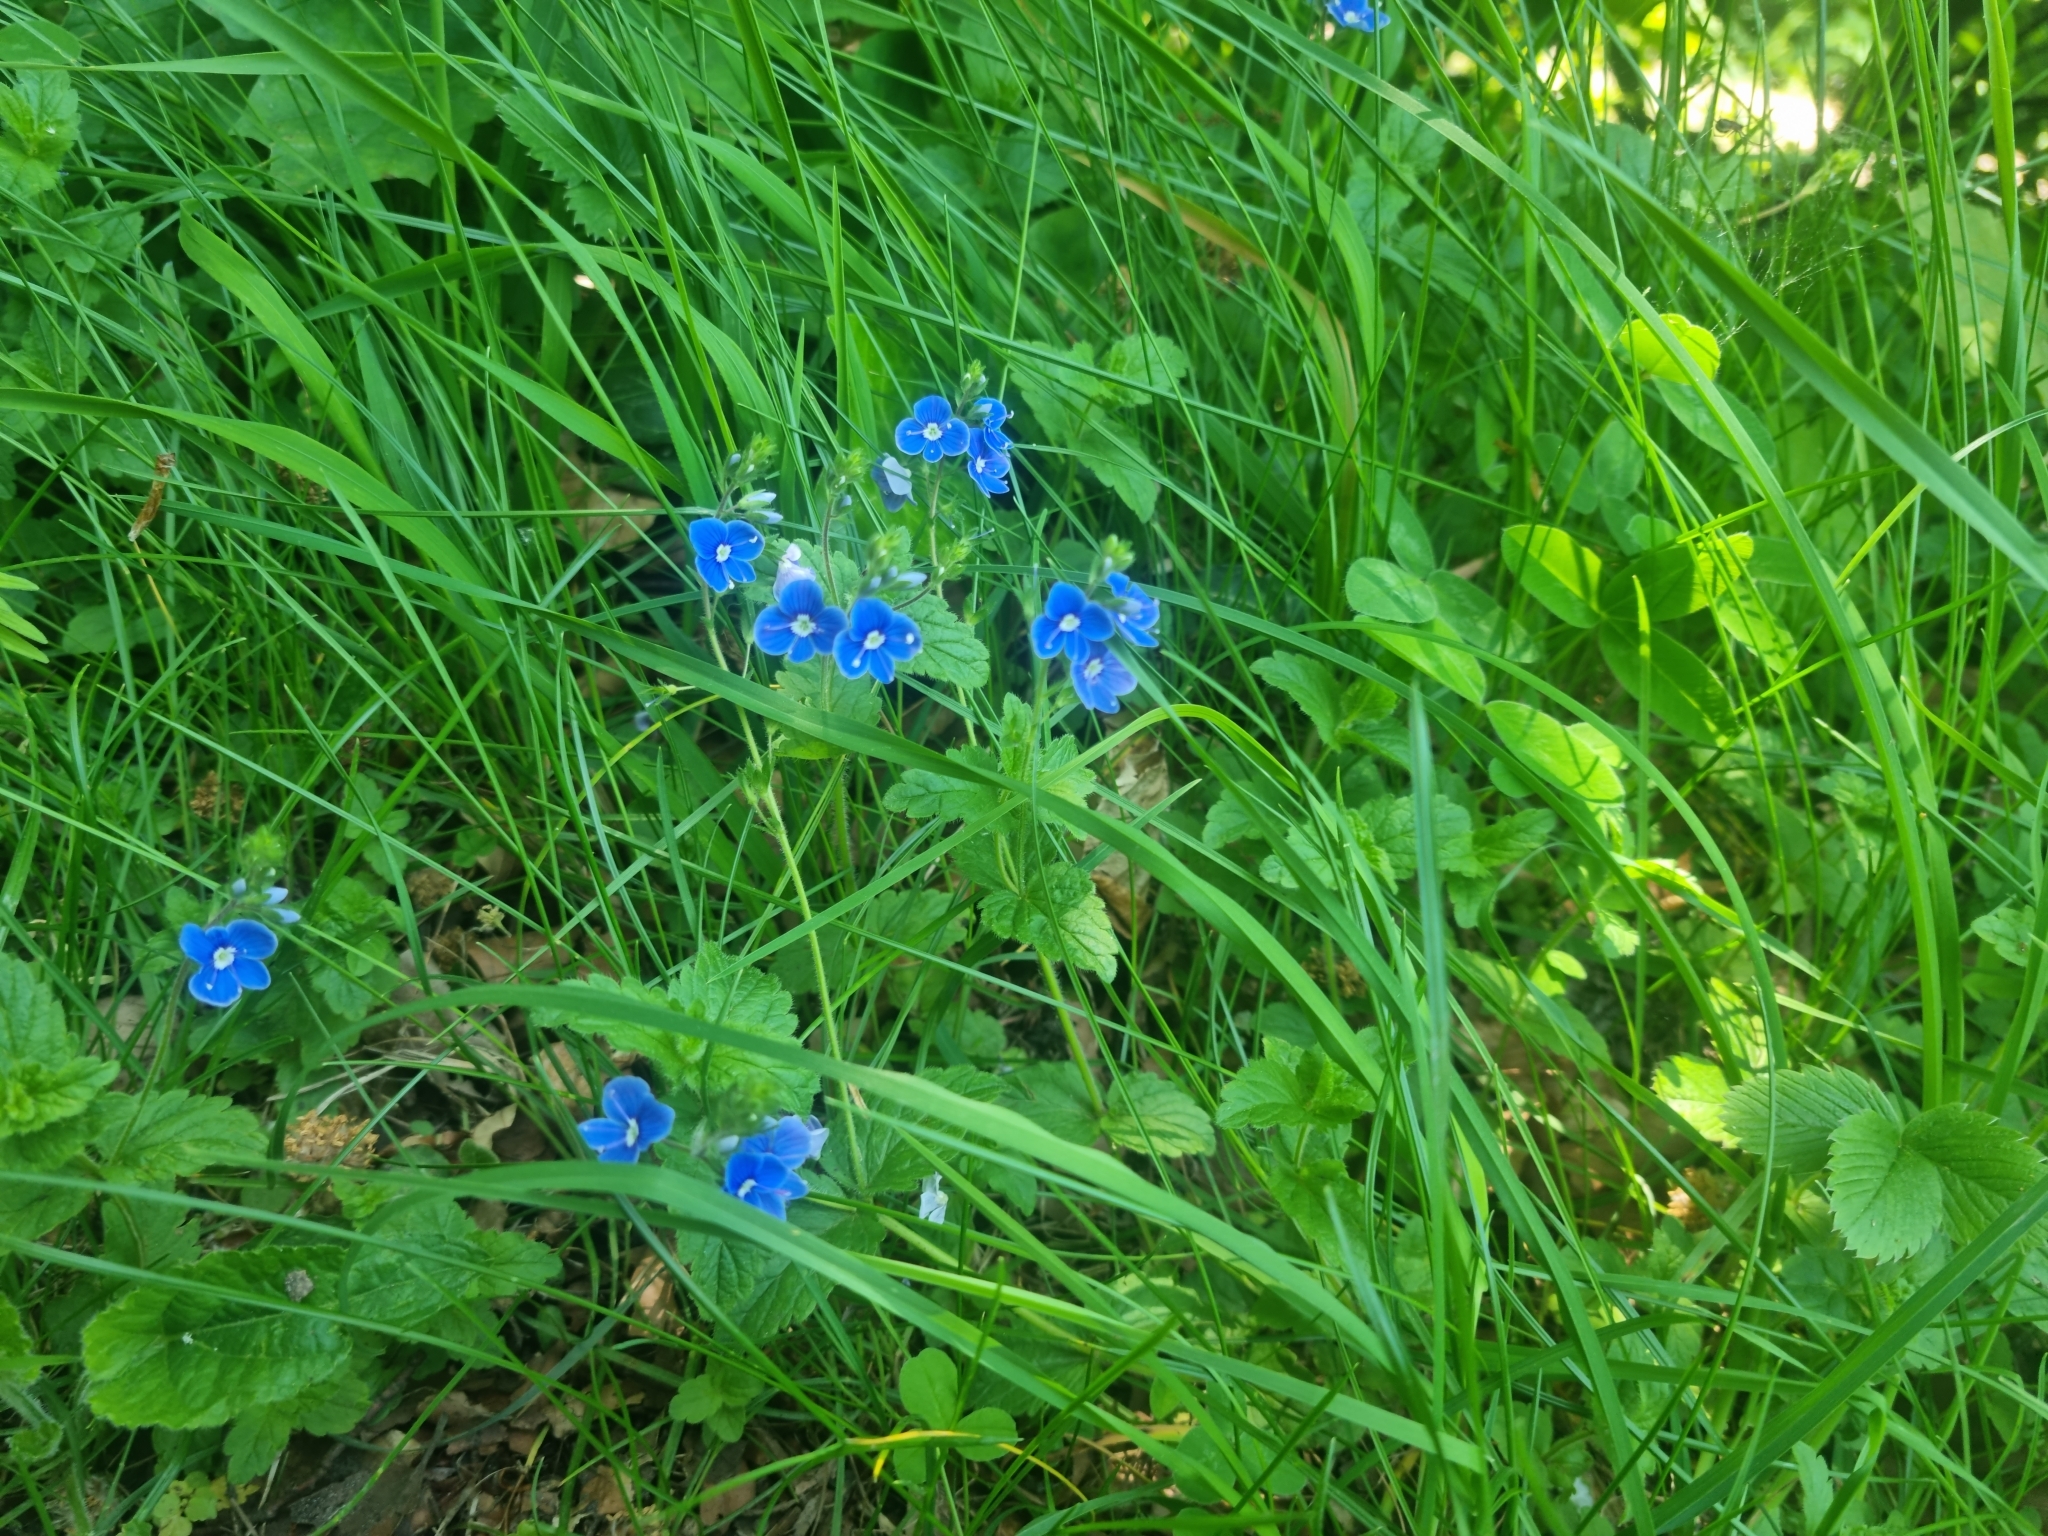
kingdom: Plantae
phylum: Tracheophyta
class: Magnoliopsida
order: Lamiales
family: Plantaginaceae
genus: Veronica
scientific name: Veronica chamaedrys
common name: Germander speedwell
